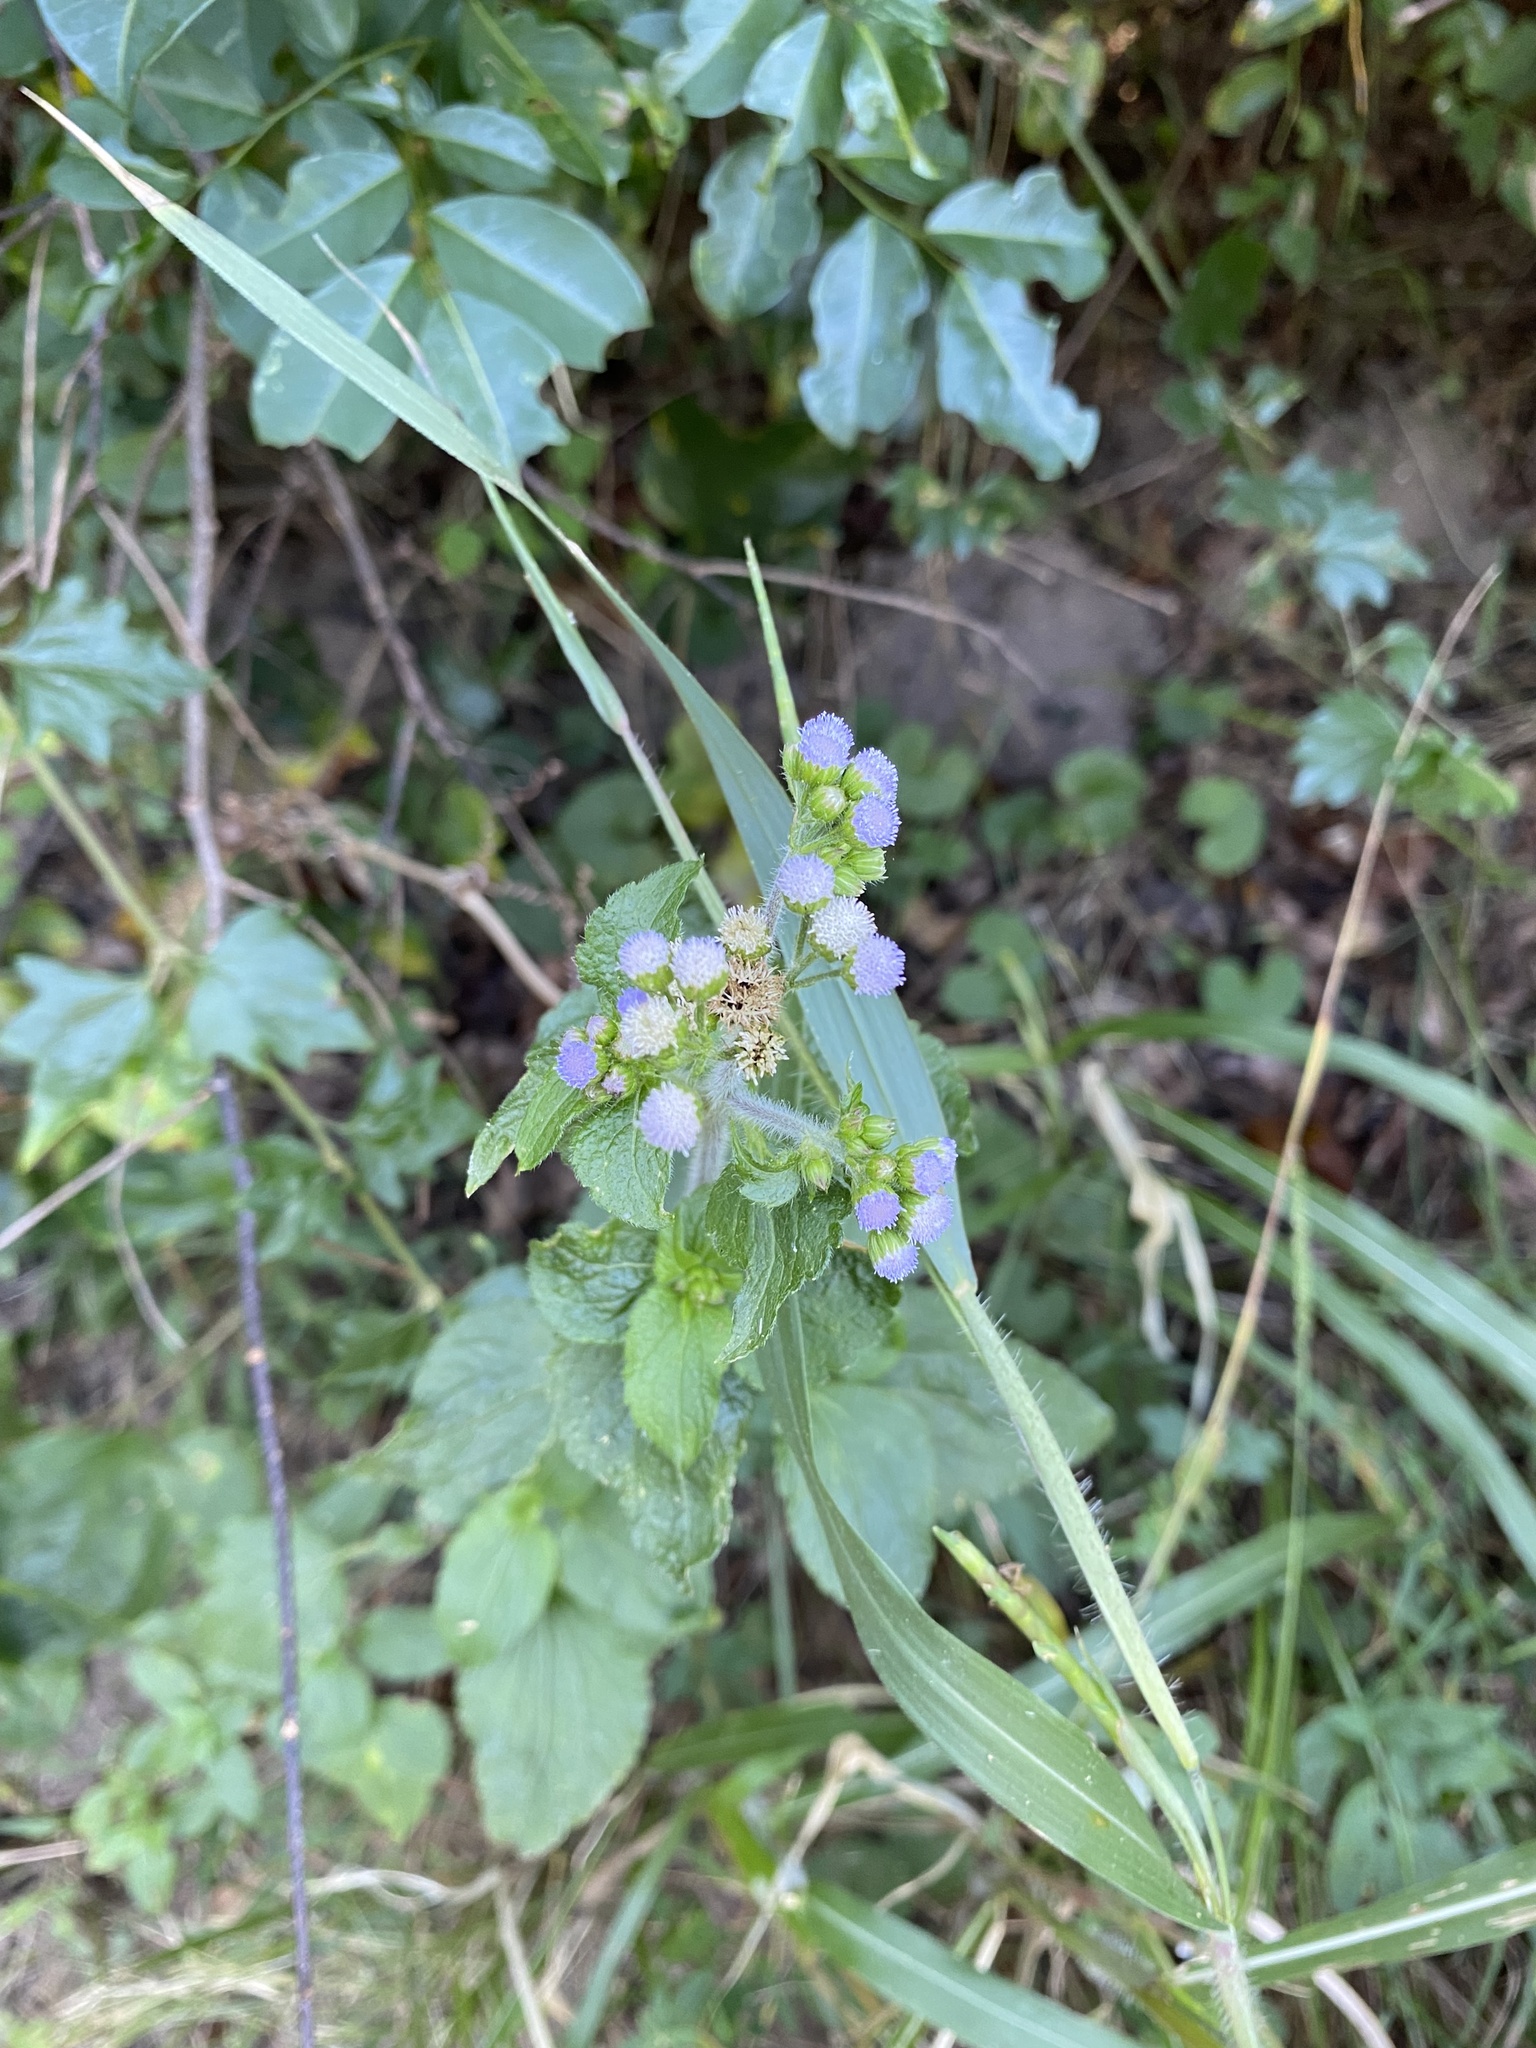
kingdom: Plantae
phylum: Tracheophyta
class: Magnoliopsida
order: Asterales
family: Asteraceae
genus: Ageratum
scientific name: Ageratum conyzoides
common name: Tropical whiteweed
